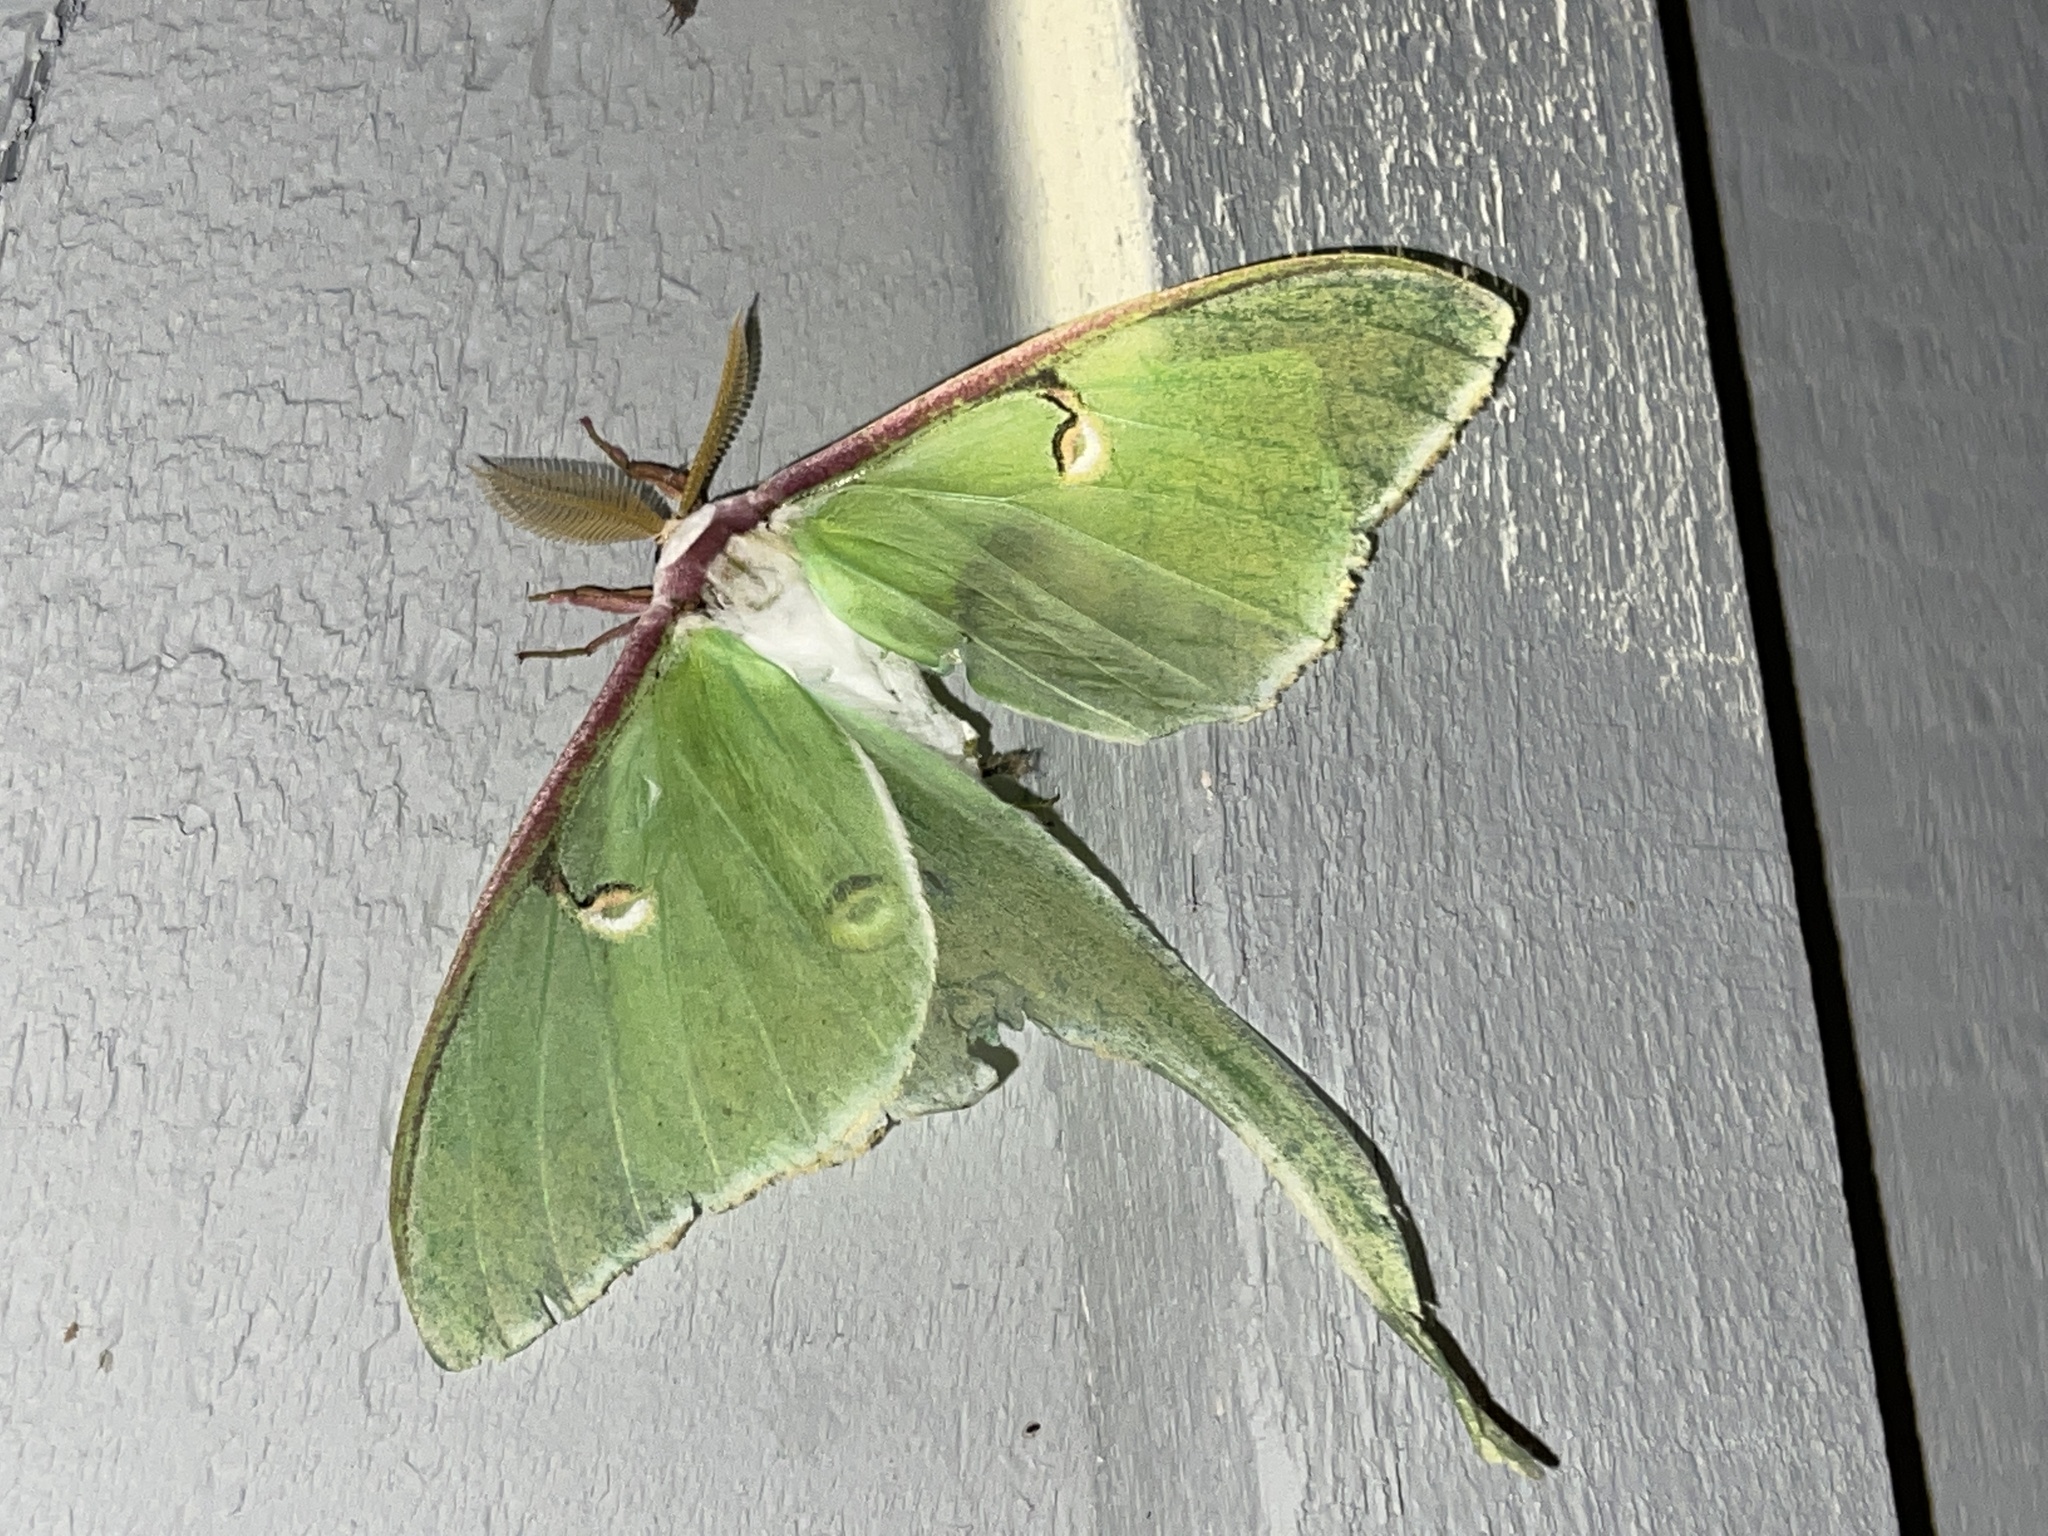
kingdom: Animalia
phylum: Arthropoda
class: Insecta
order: Lepidoptera
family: Saturniidae
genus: Actias
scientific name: Actias luna
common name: Luna moth
